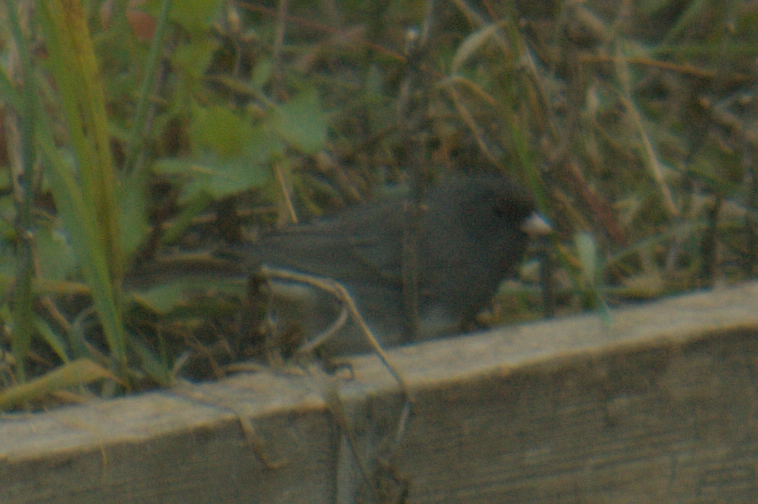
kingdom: Animalia
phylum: Chordata
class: Aves
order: Passeriformes
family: Passerellidae
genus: Junco
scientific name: Junco hyemalis
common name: Dark-eyed junco
